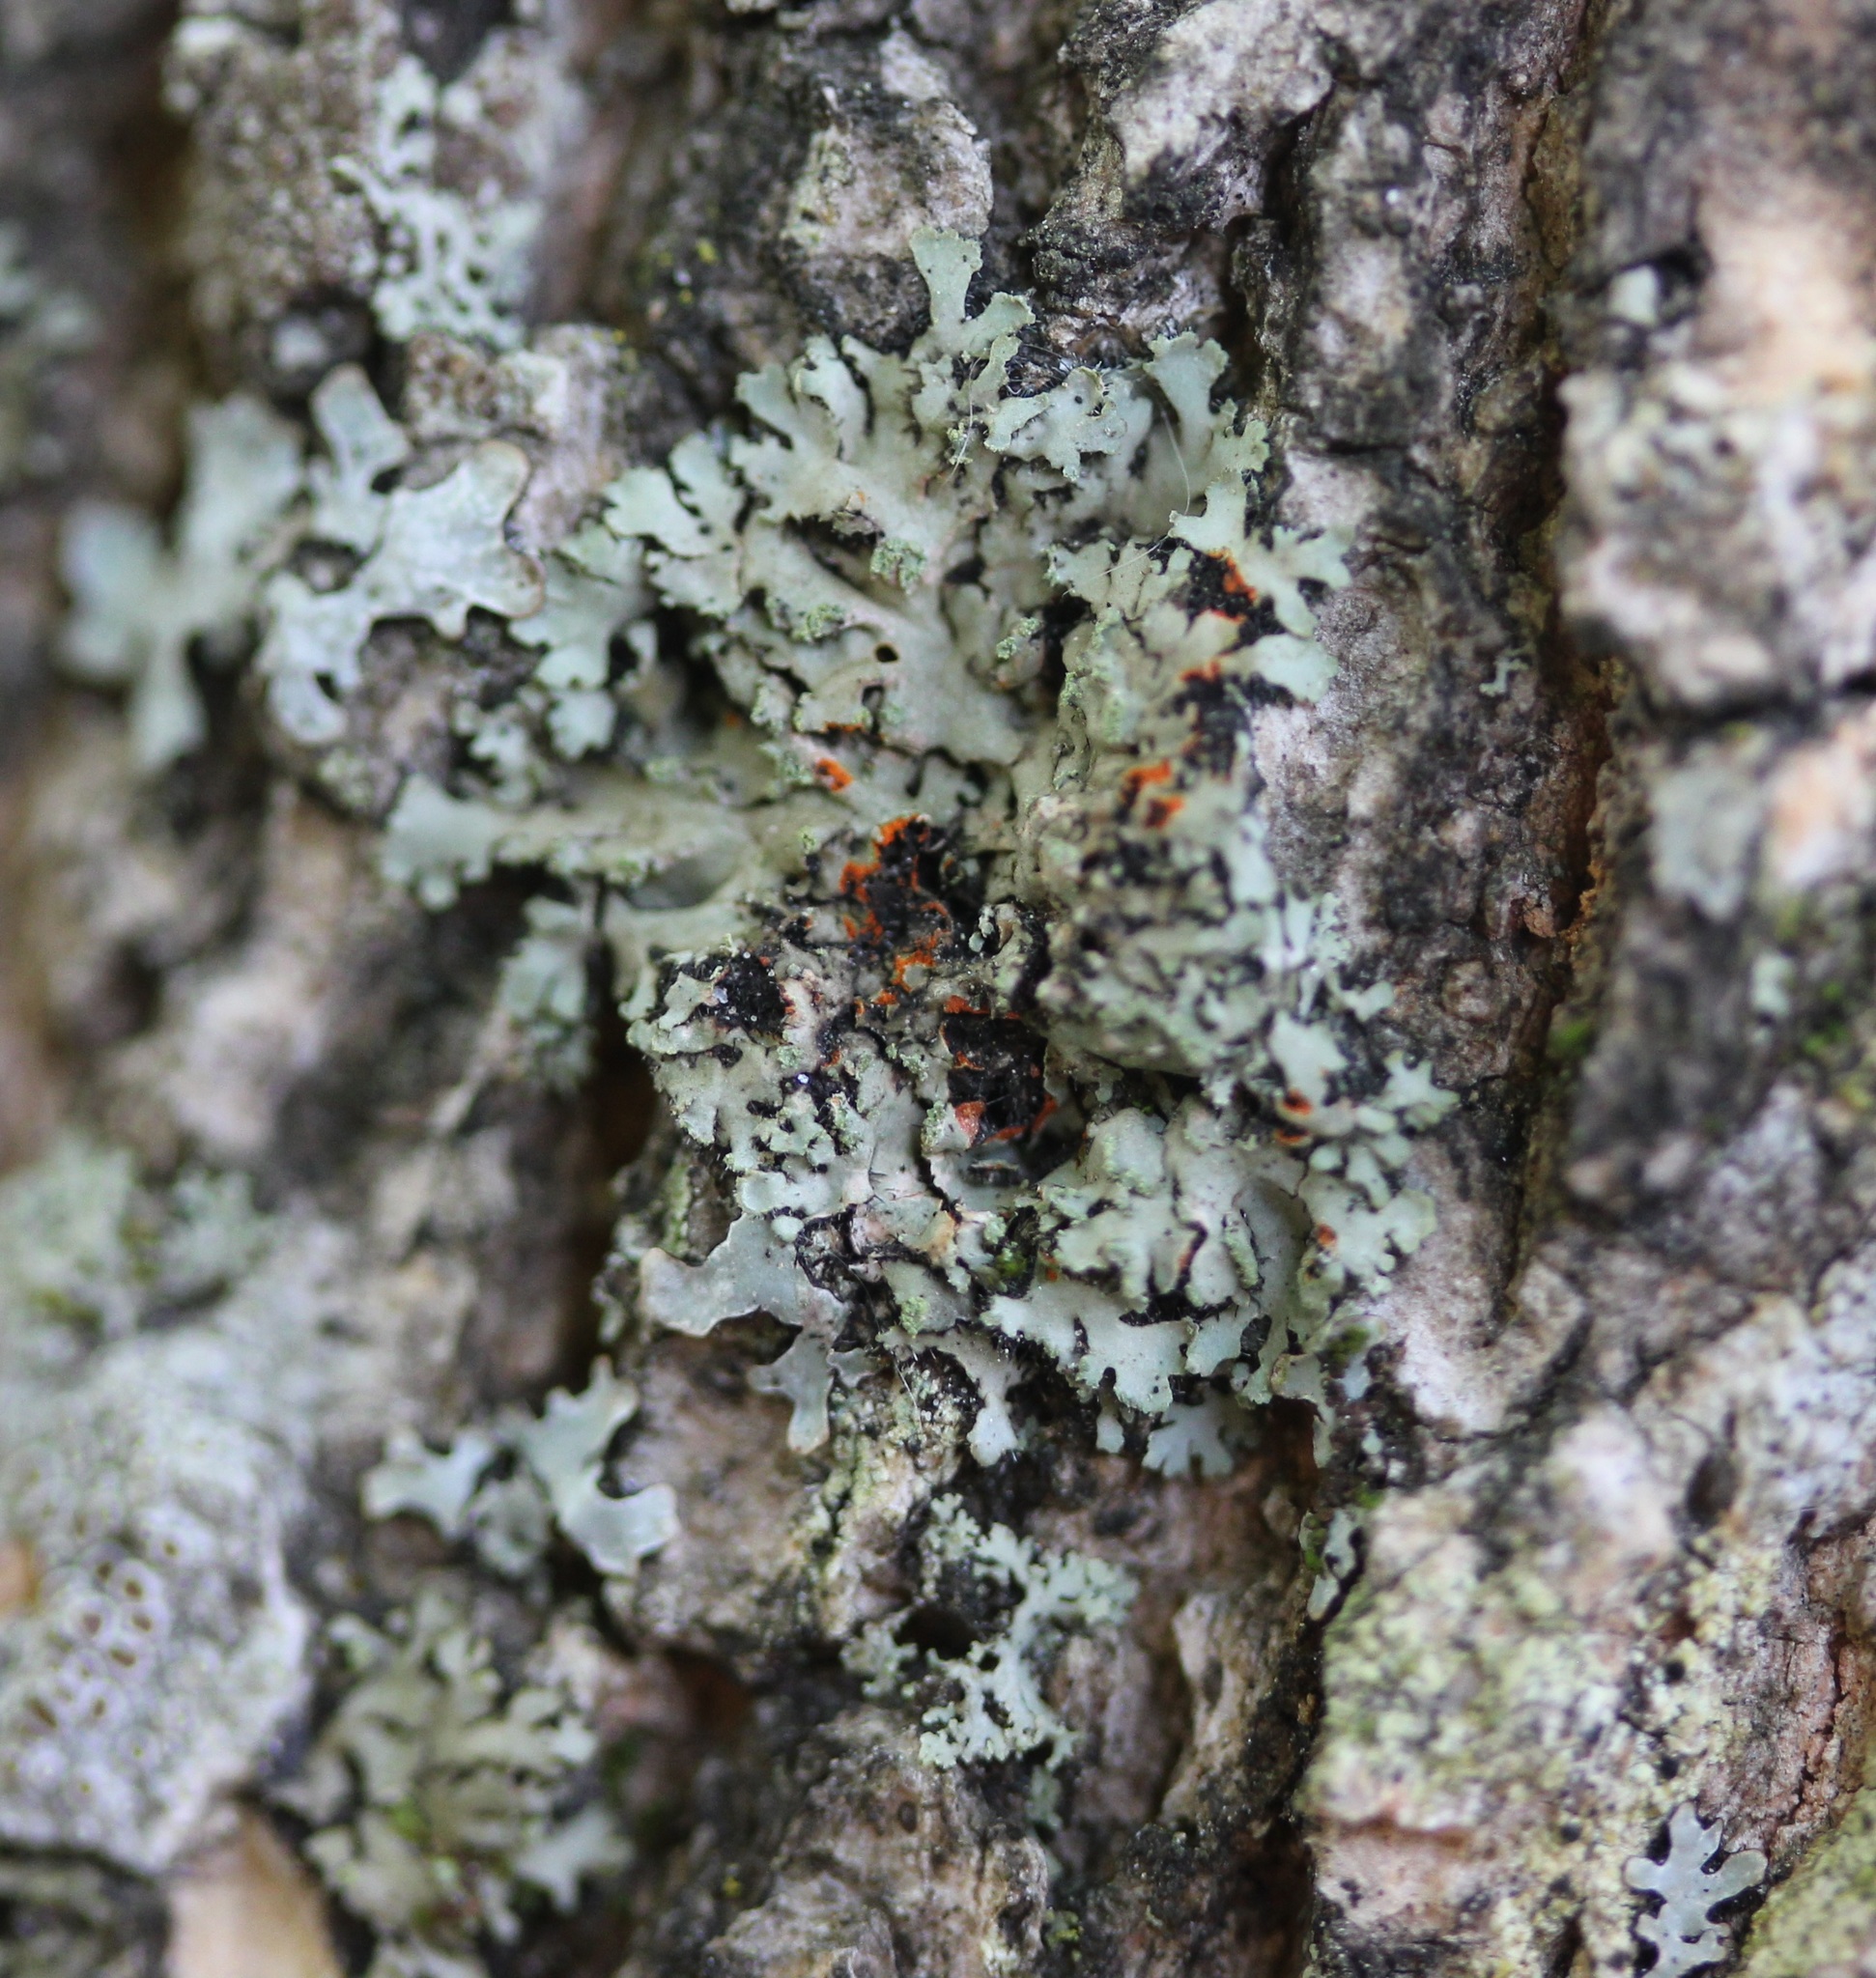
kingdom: Fungi
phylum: Ascomycota
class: Lecanoromycetes
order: Caliciales
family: Physciaceae
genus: Phaeophyscia
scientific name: Phaeophyscia rubropulchra
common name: Orange-cored shadow lichen
